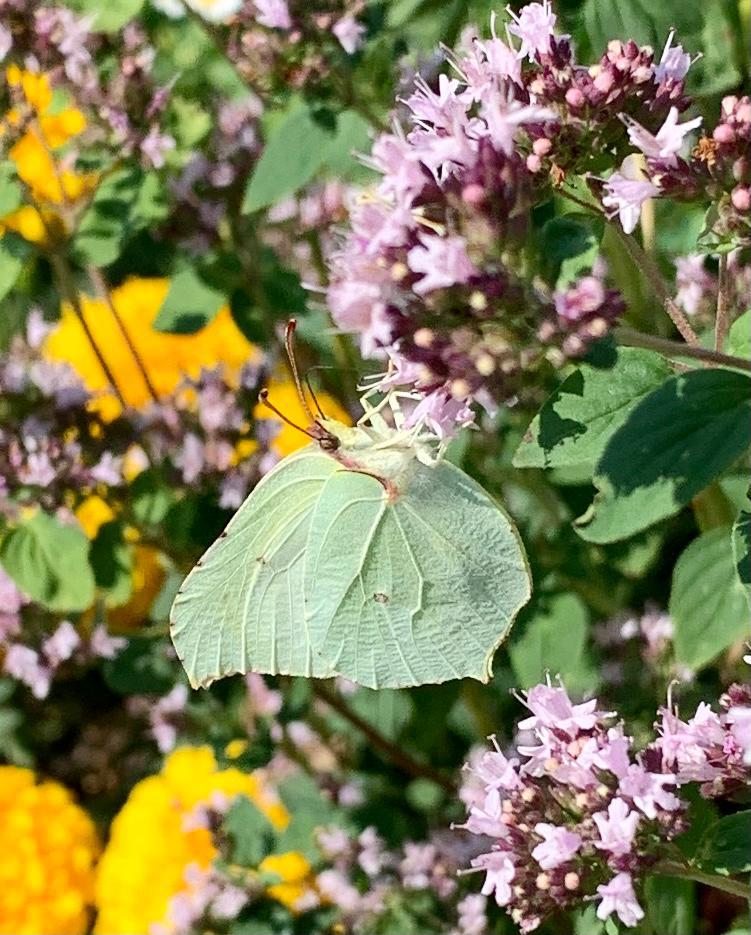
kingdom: Animalia
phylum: Arthropoda
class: Insecta
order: Lepidoptera
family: Pieridae
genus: Gonepteryx
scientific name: Gonepteryx rhamni
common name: Brimstone
